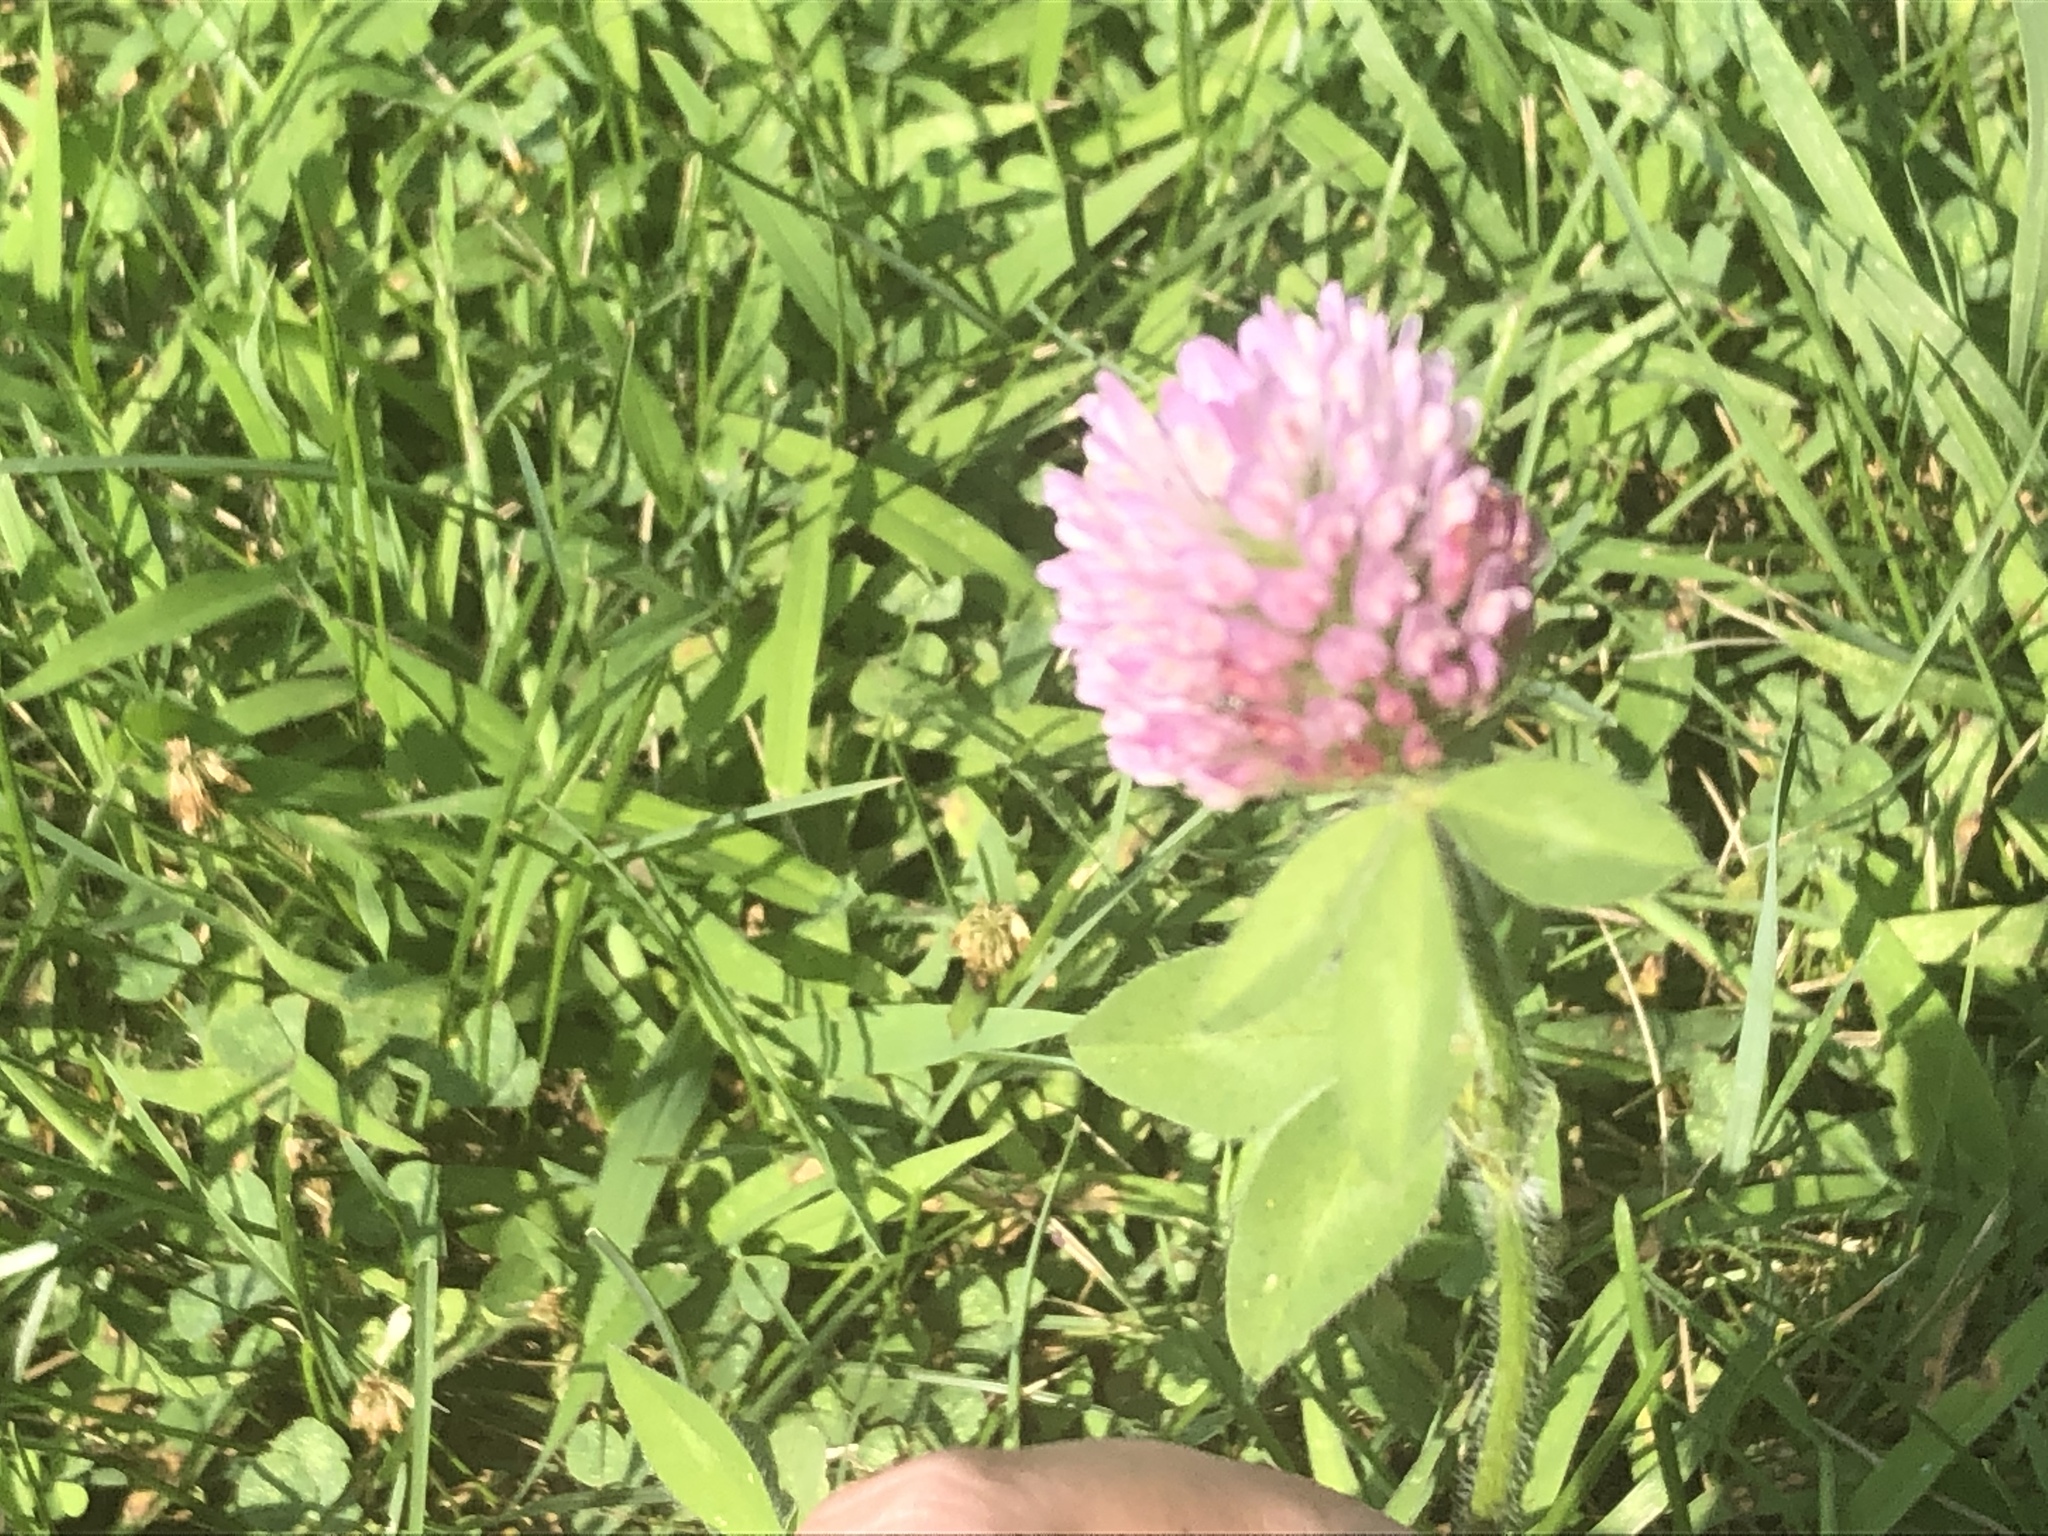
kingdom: Plantae
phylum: Tracheophyta
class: Magnoliopsida
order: Fabales
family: Fabaceae
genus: Trifolium
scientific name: Trifolium pratense
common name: Red clover
